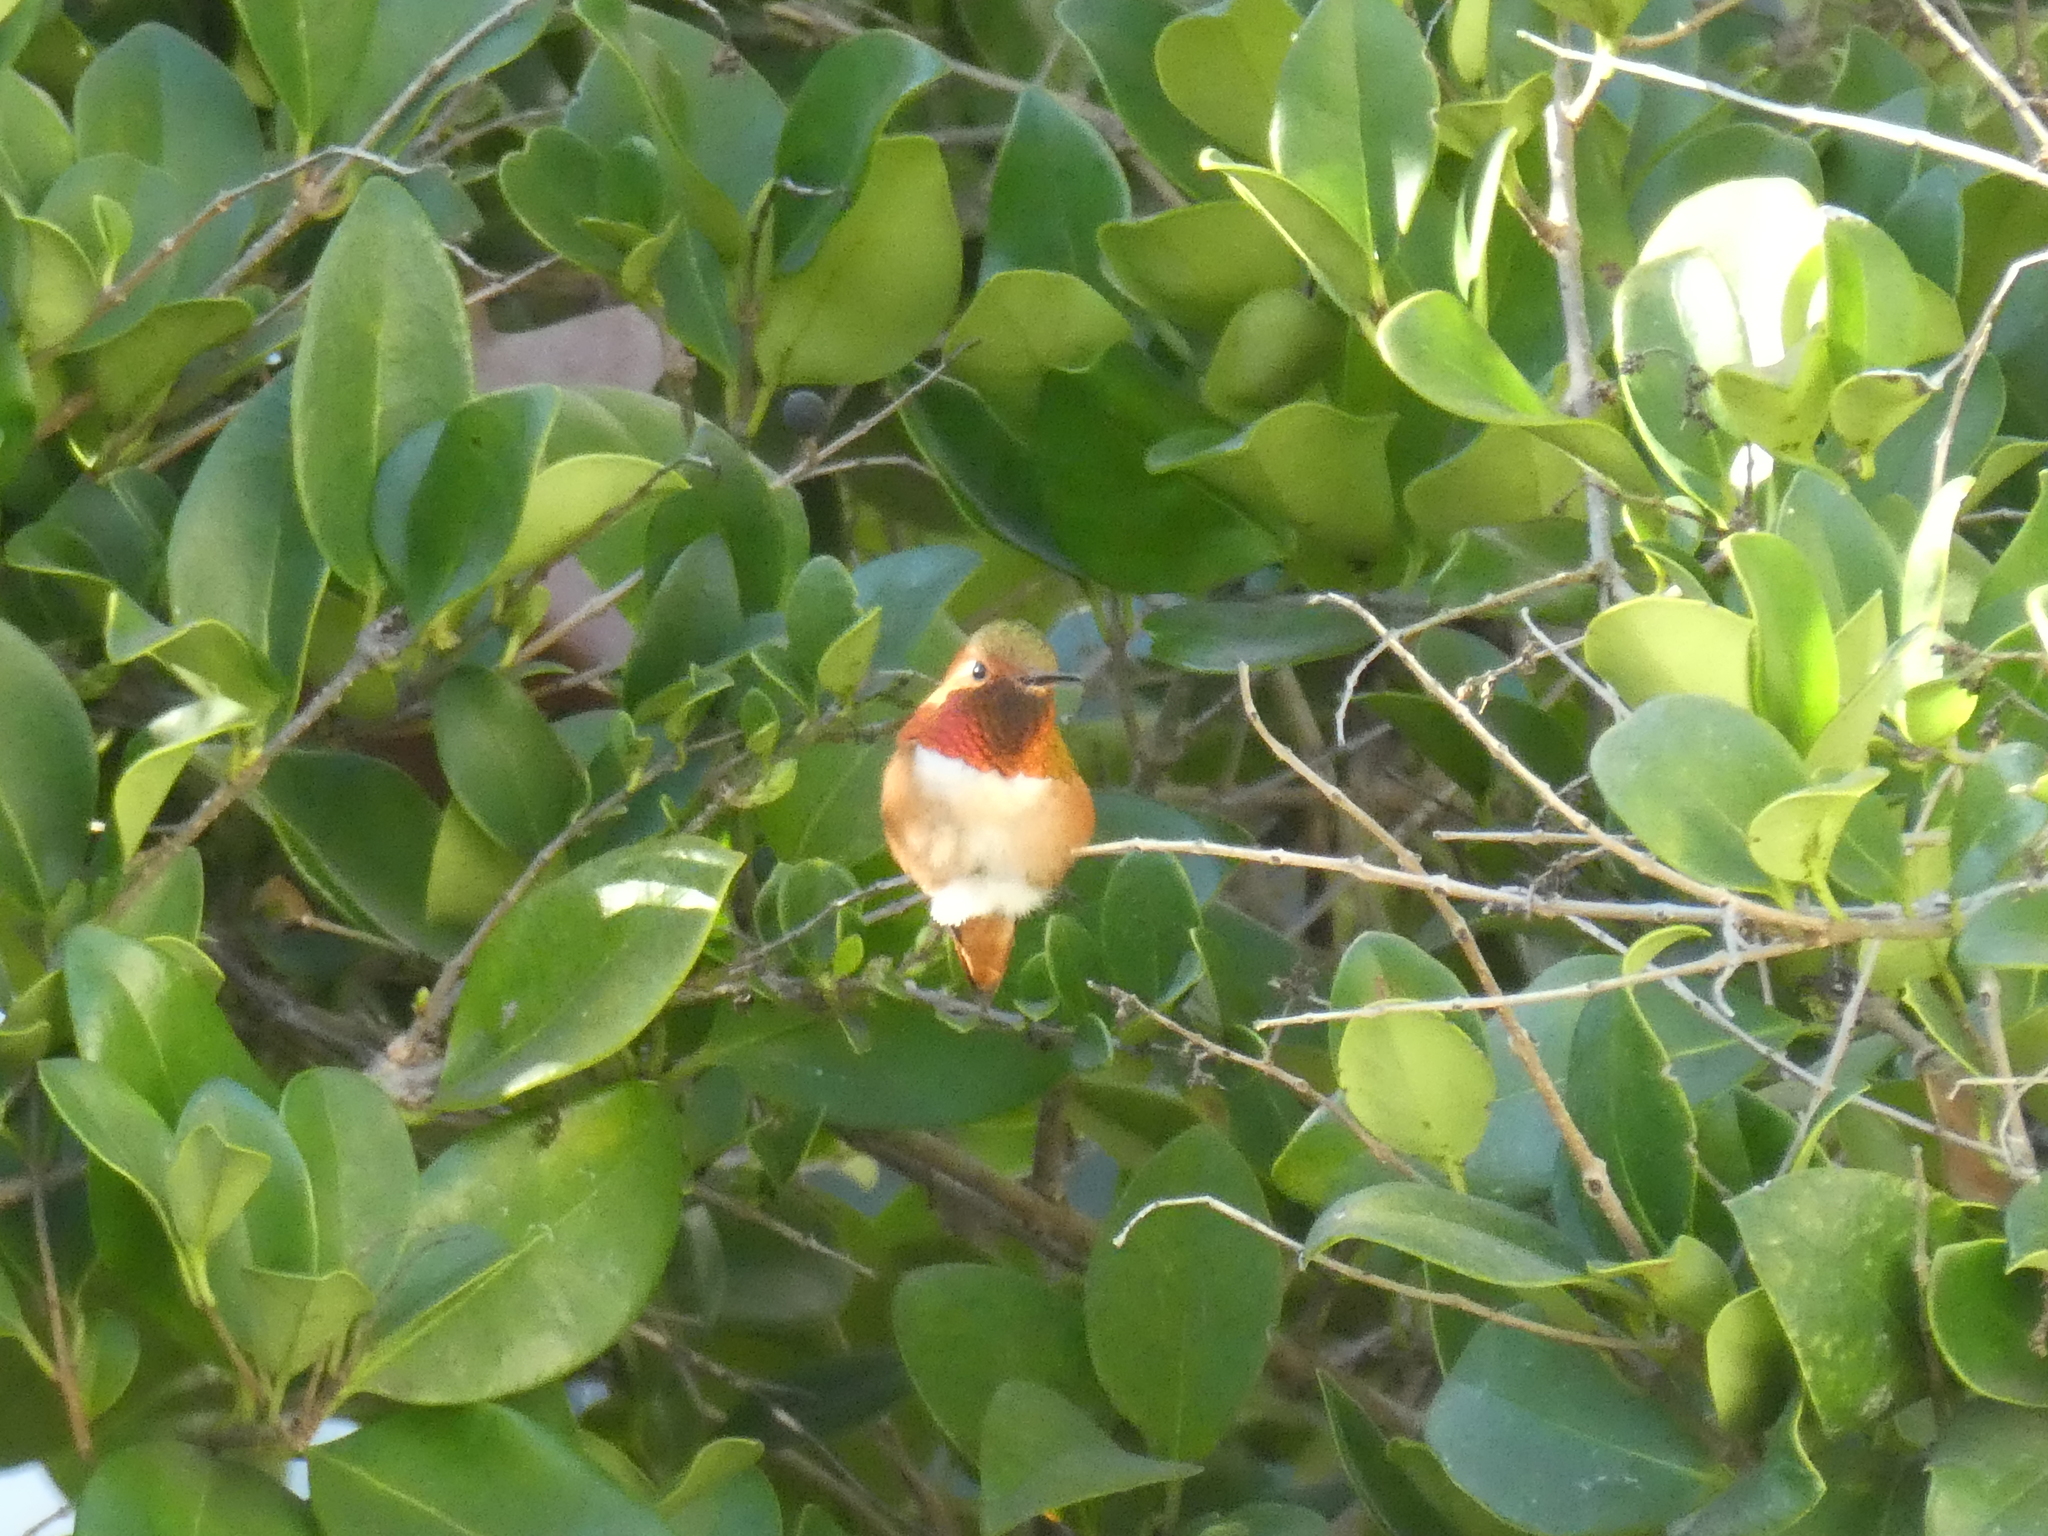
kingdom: Animalia
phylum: Chordata
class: Aves
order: Apodiformes
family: Trochilidae
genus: Selasphorus
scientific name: Selasphorus
